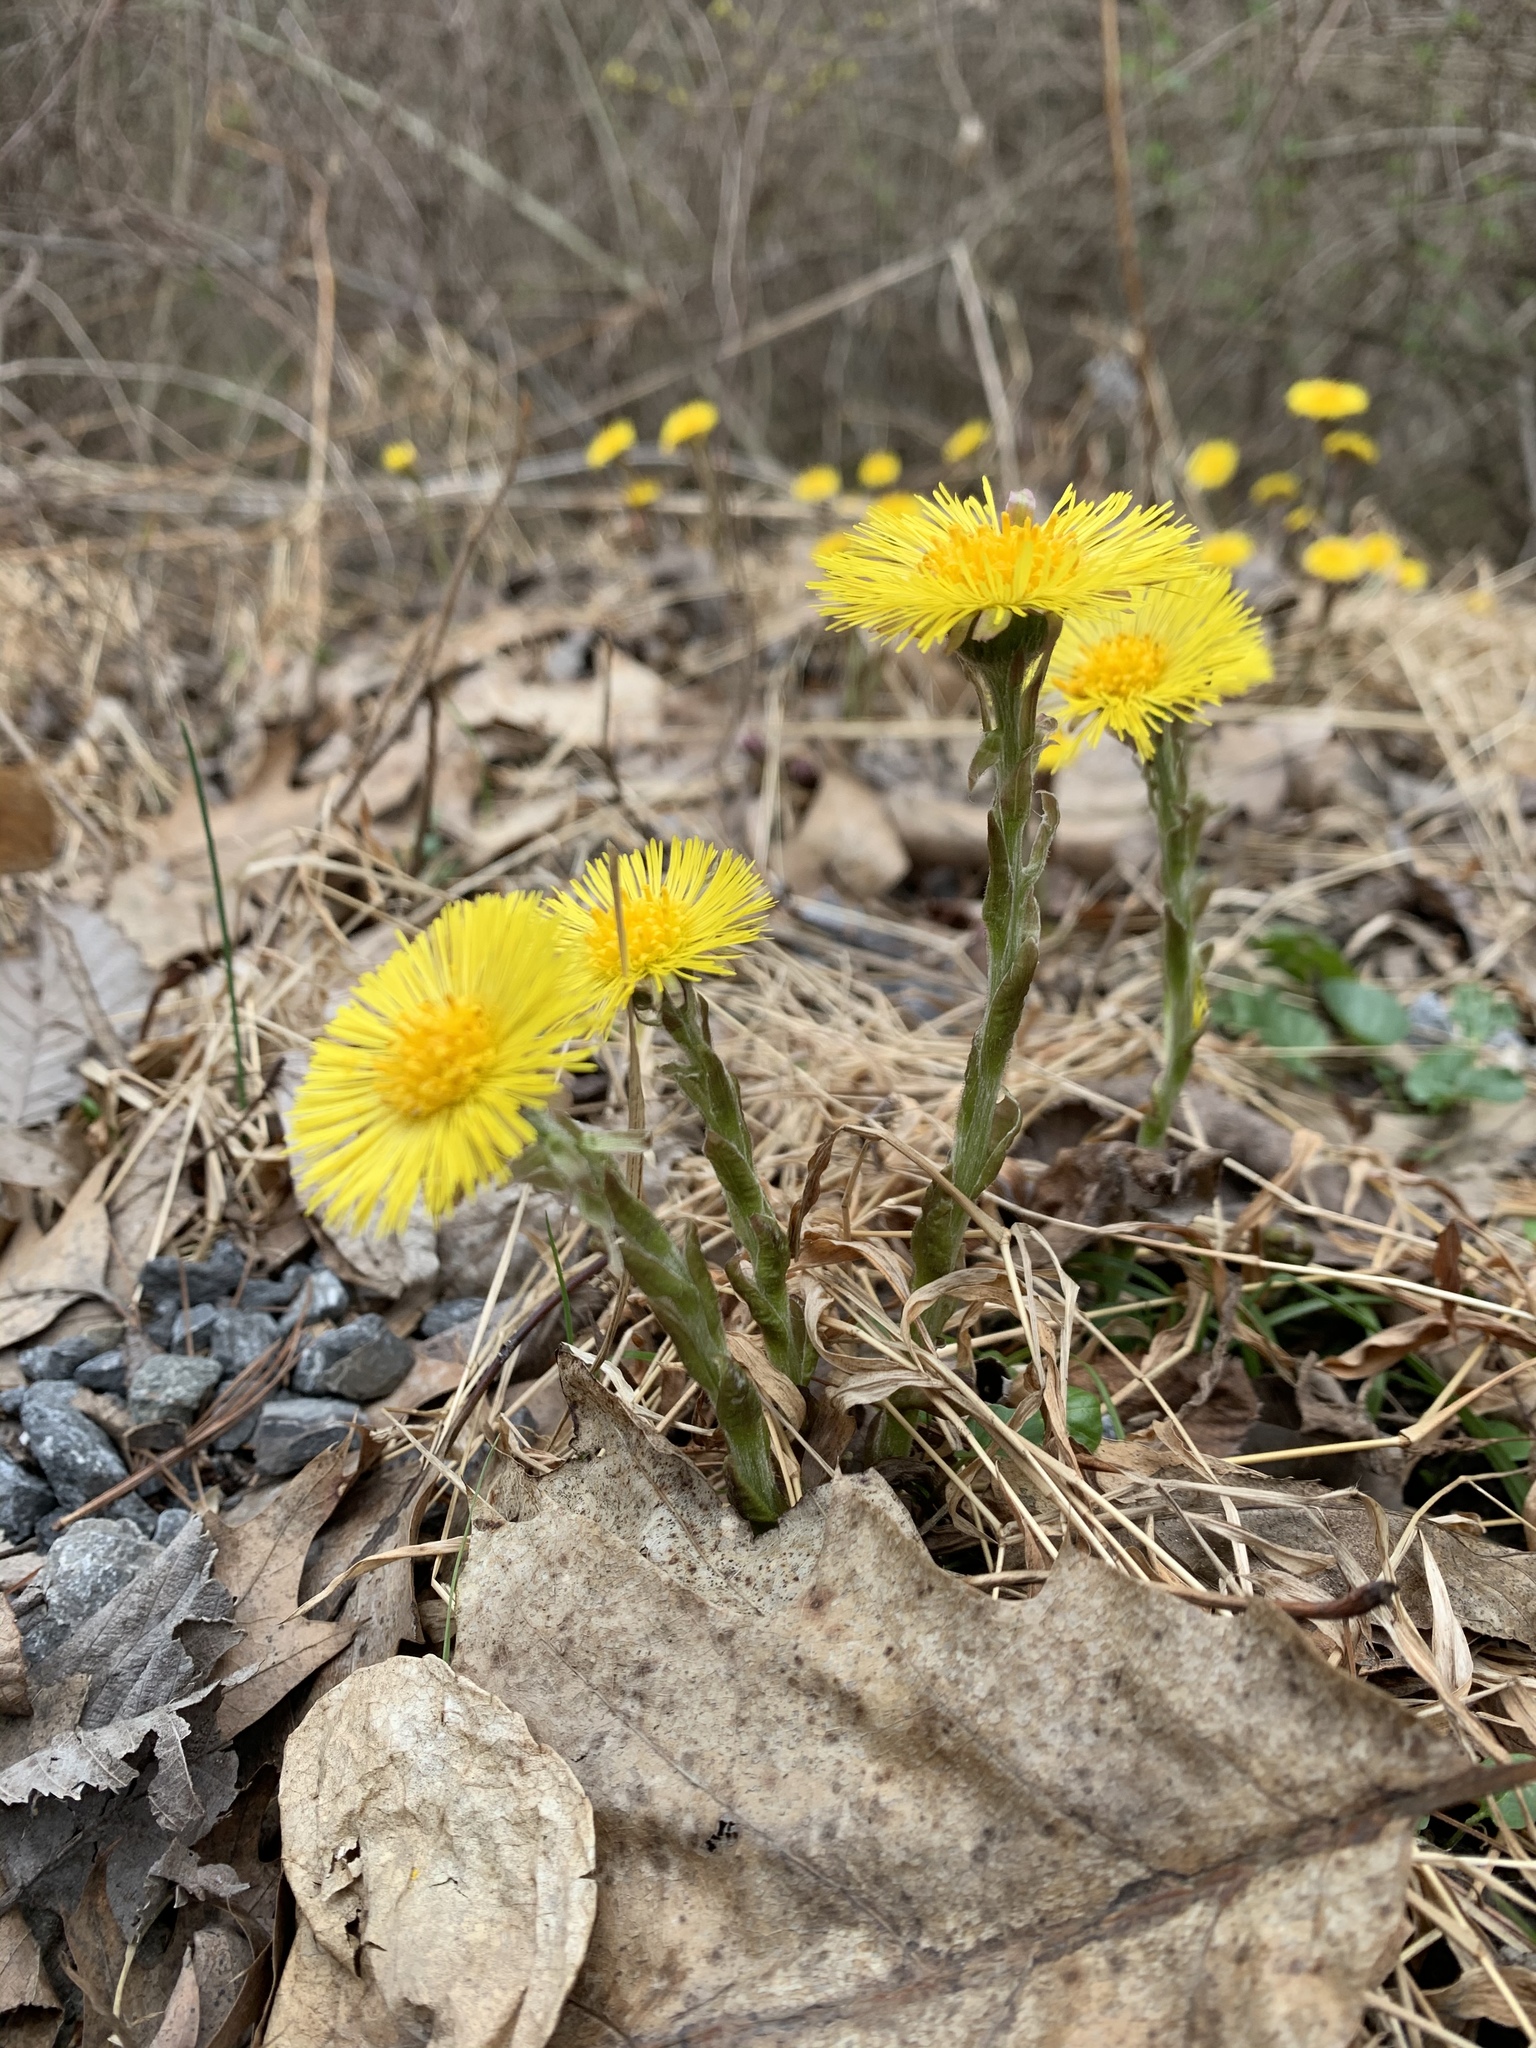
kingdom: Plantae
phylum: Tracheophyta
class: Magnoliopsida
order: Asterales
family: Asteraceae
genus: Tussilago
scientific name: Tussilago farfara
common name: Coltsfoot
